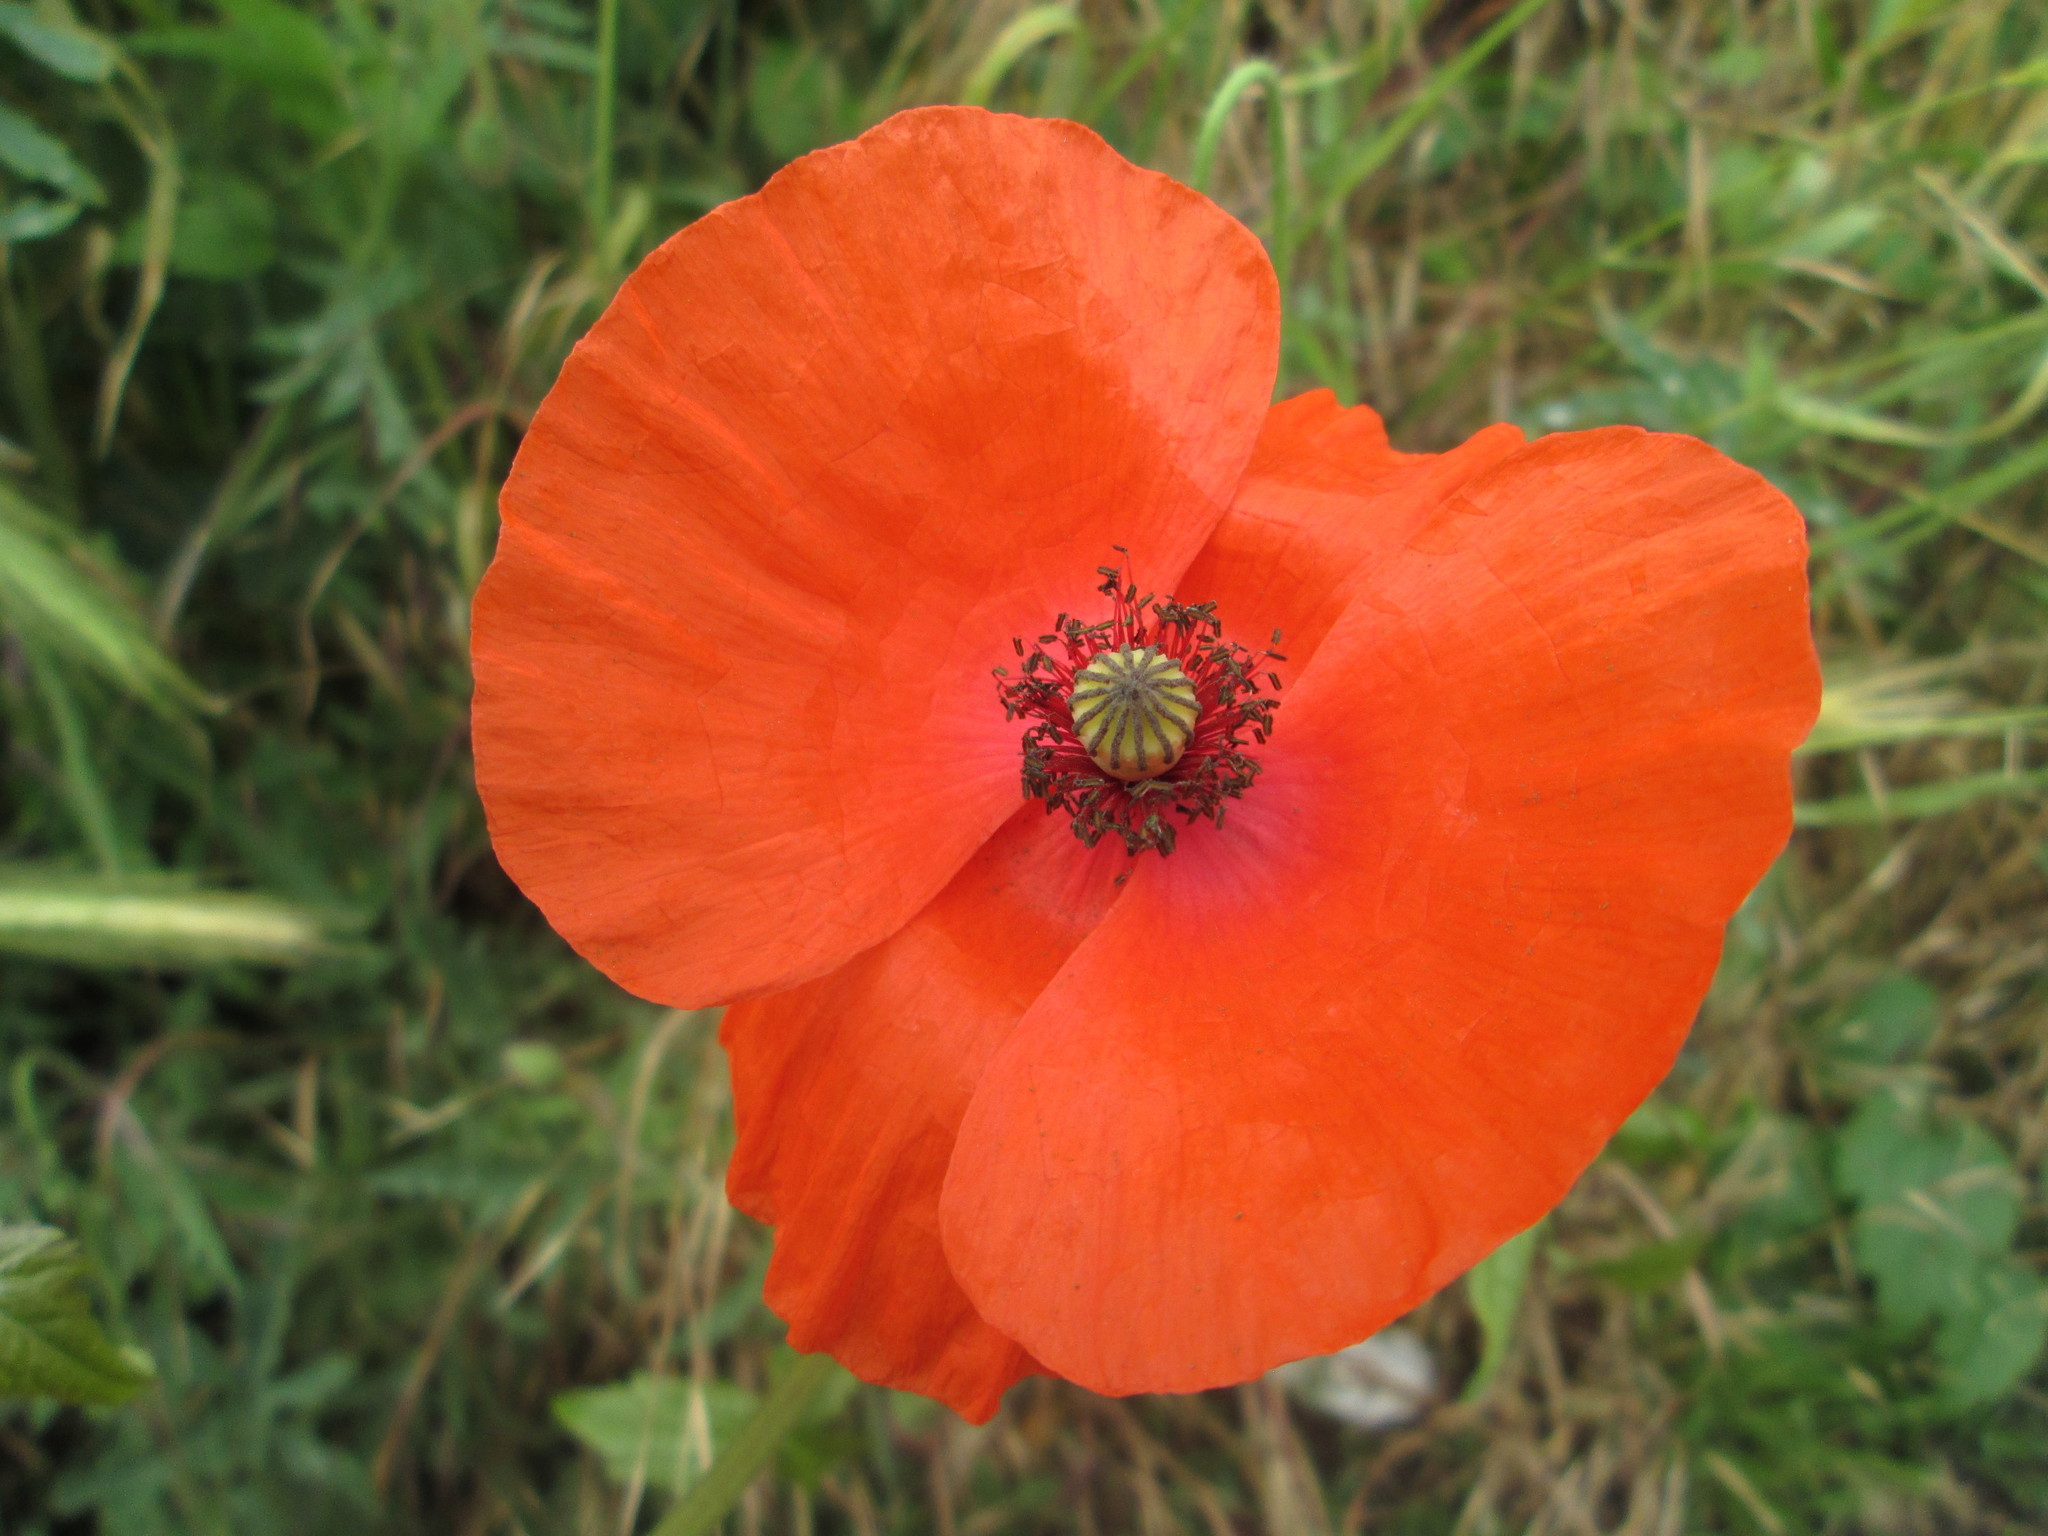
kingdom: Plantae
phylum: Tracheophyta
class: Magnoliopsida
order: Ranunculales
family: Papaveraceae
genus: Papaver
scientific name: Papaver rhoeas
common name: Corn poppy
